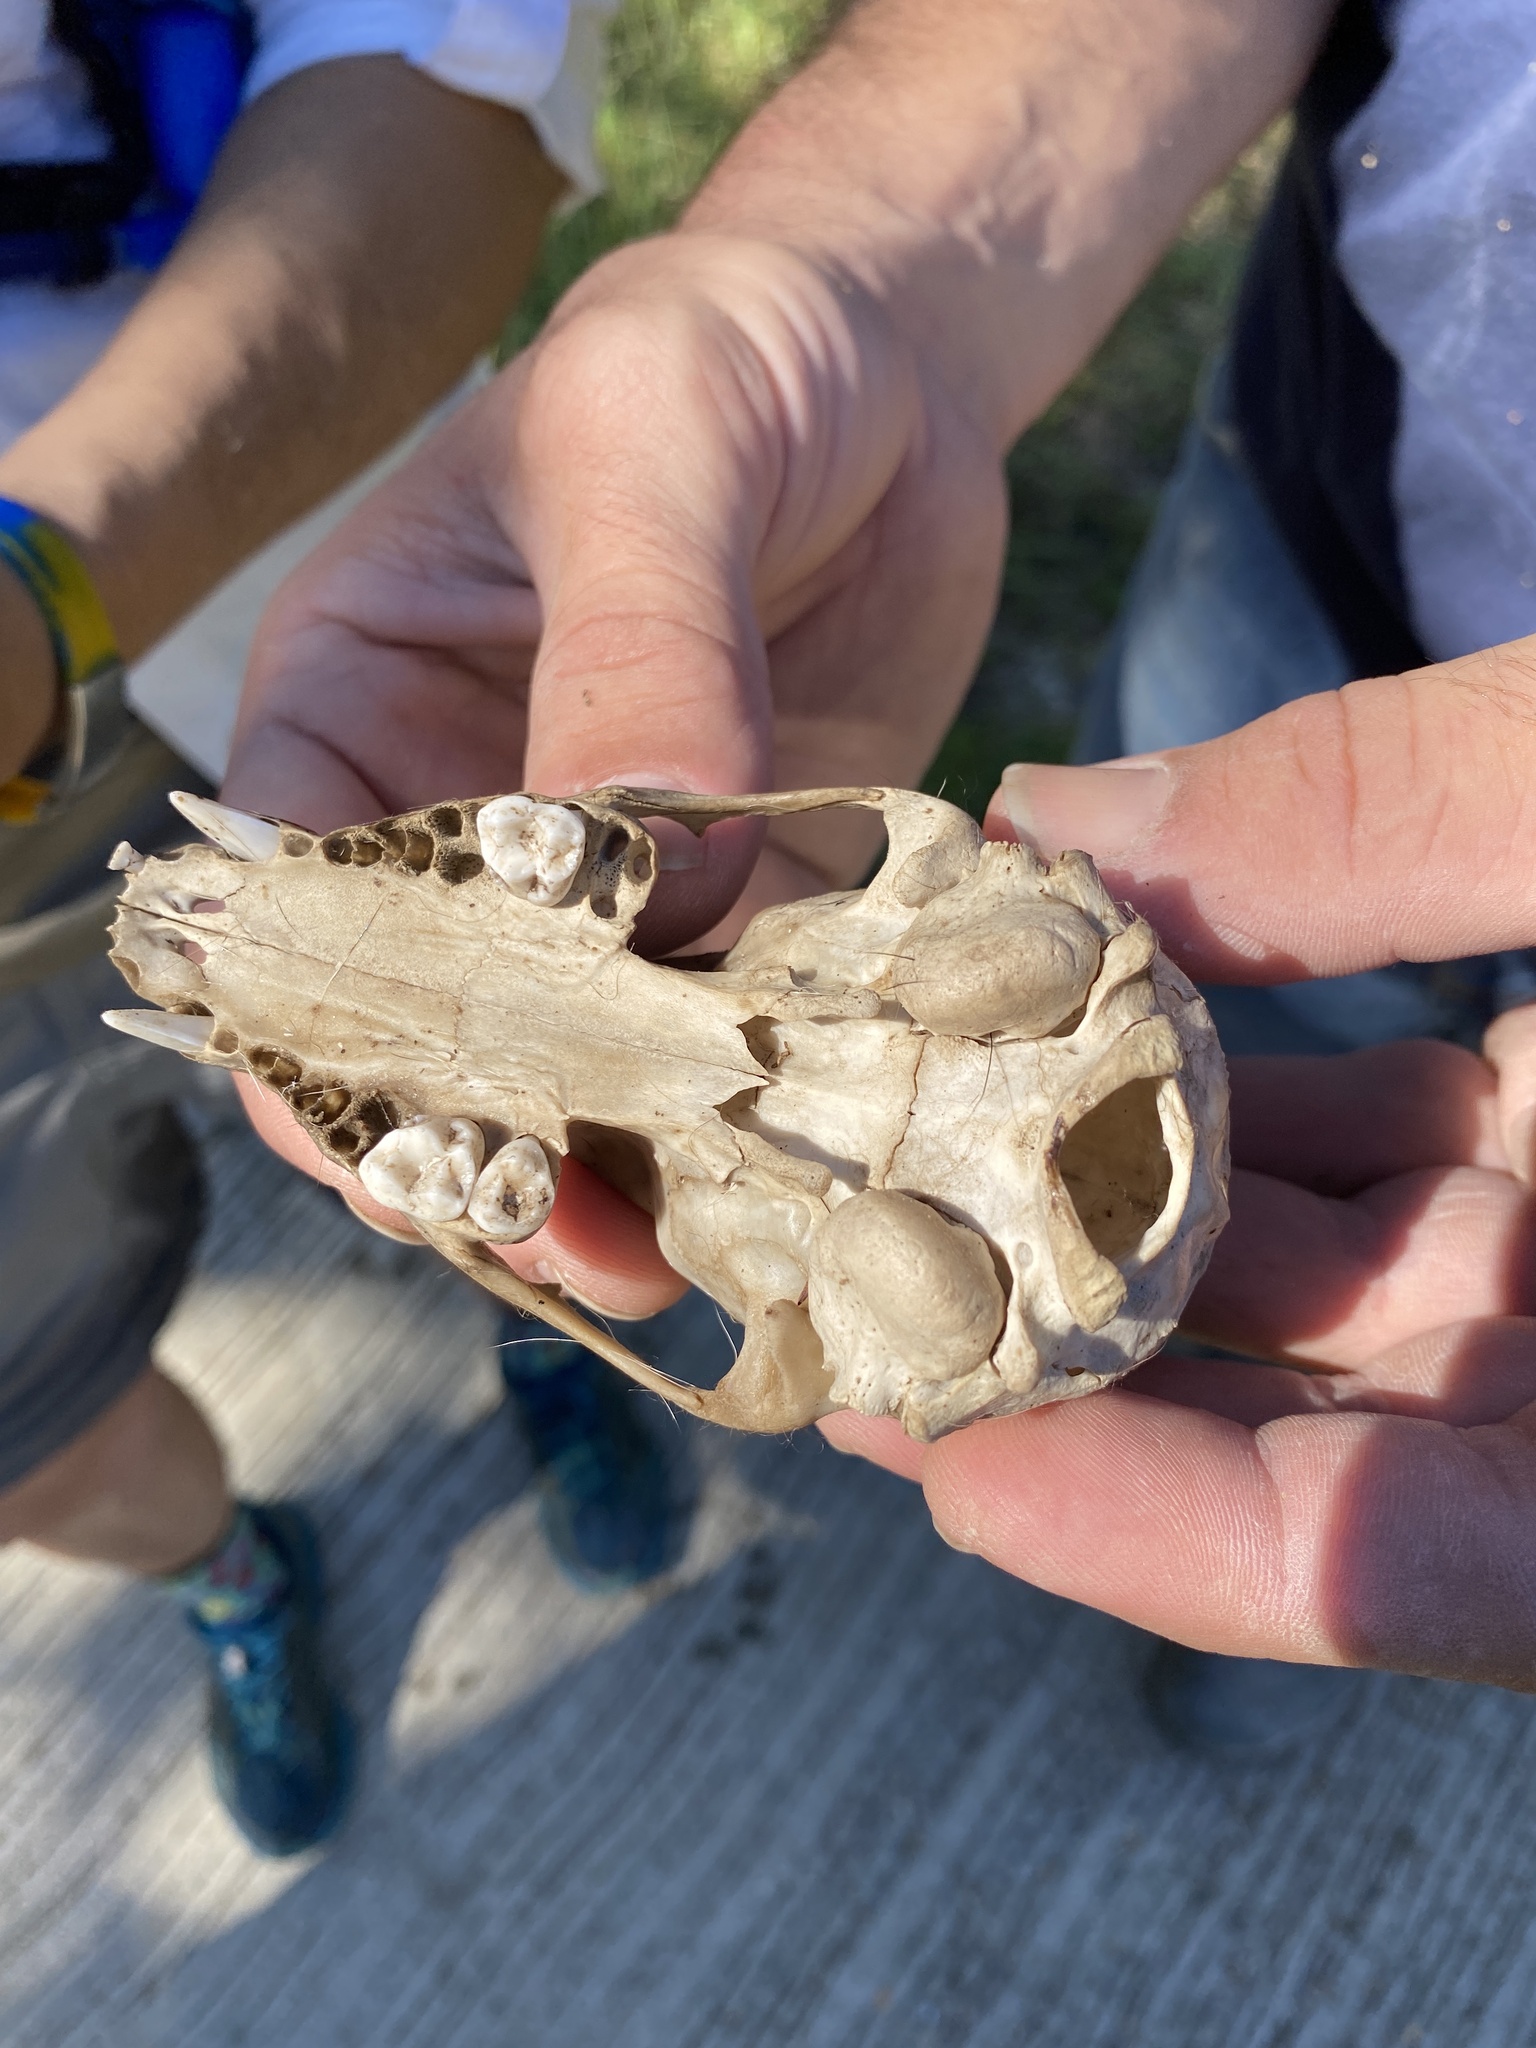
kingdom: Animalia
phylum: Chordata
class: Mammalia
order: Carnivora
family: Procyonidae
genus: Procyon
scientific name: Procyon lotor
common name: Raccoon
